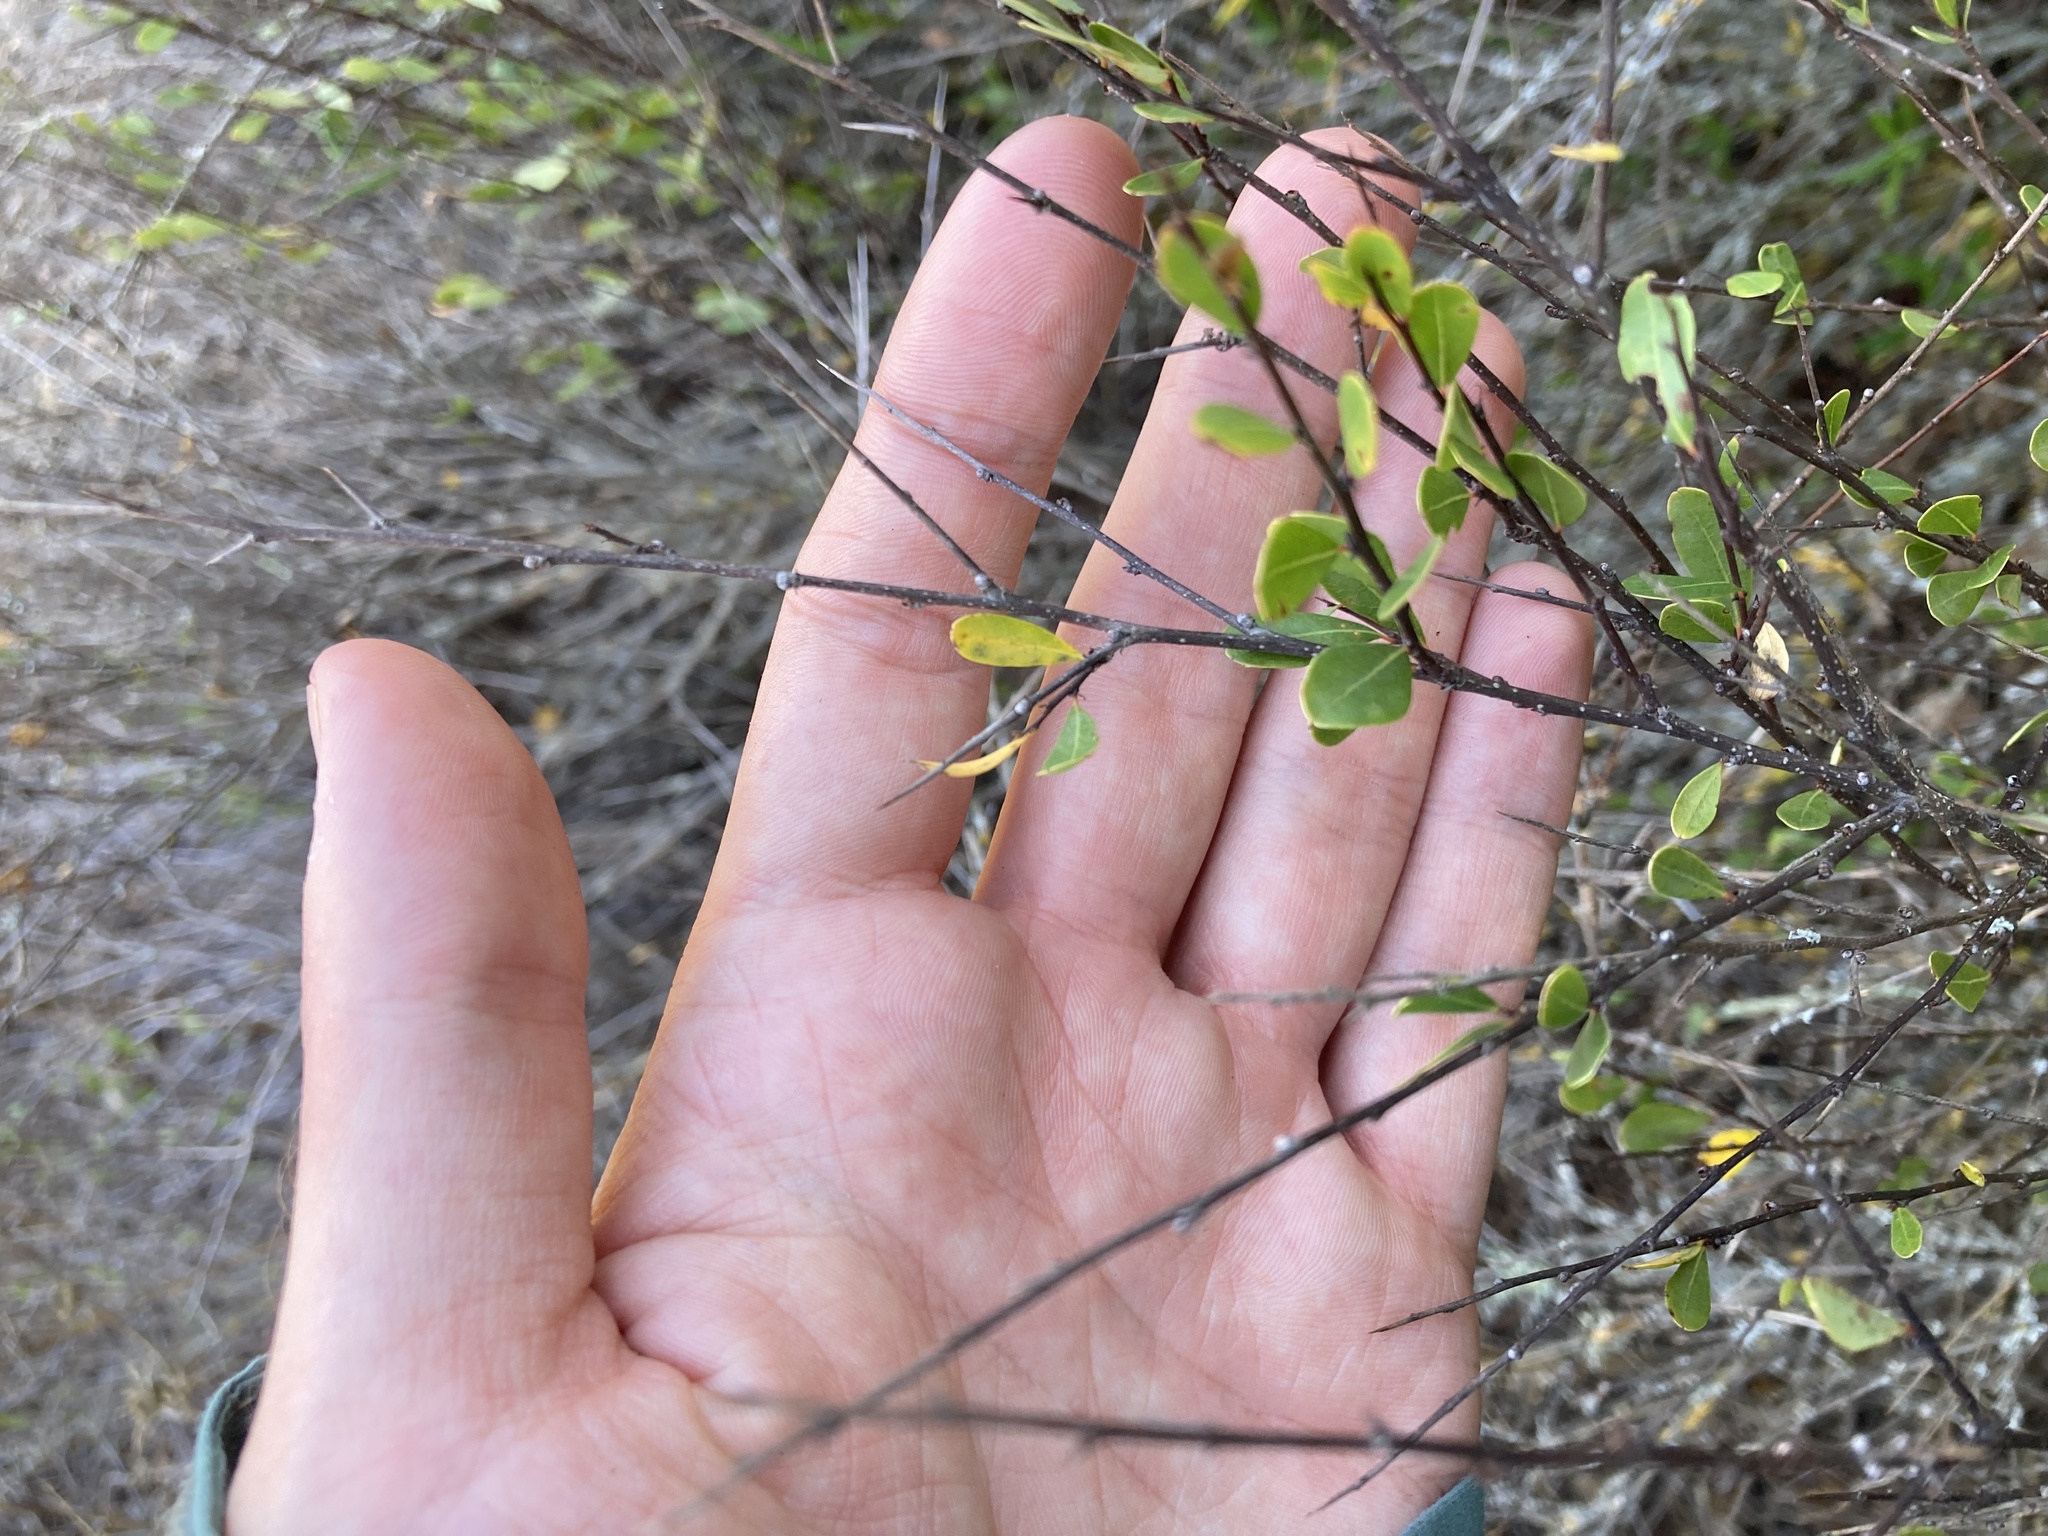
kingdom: Plantae
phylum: Tracheophyta
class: Magnoliopsida
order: Malpighiales
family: Phyllanthaceae
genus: Flueggea
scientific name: Flueggea tinctoria
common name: Tamujo
